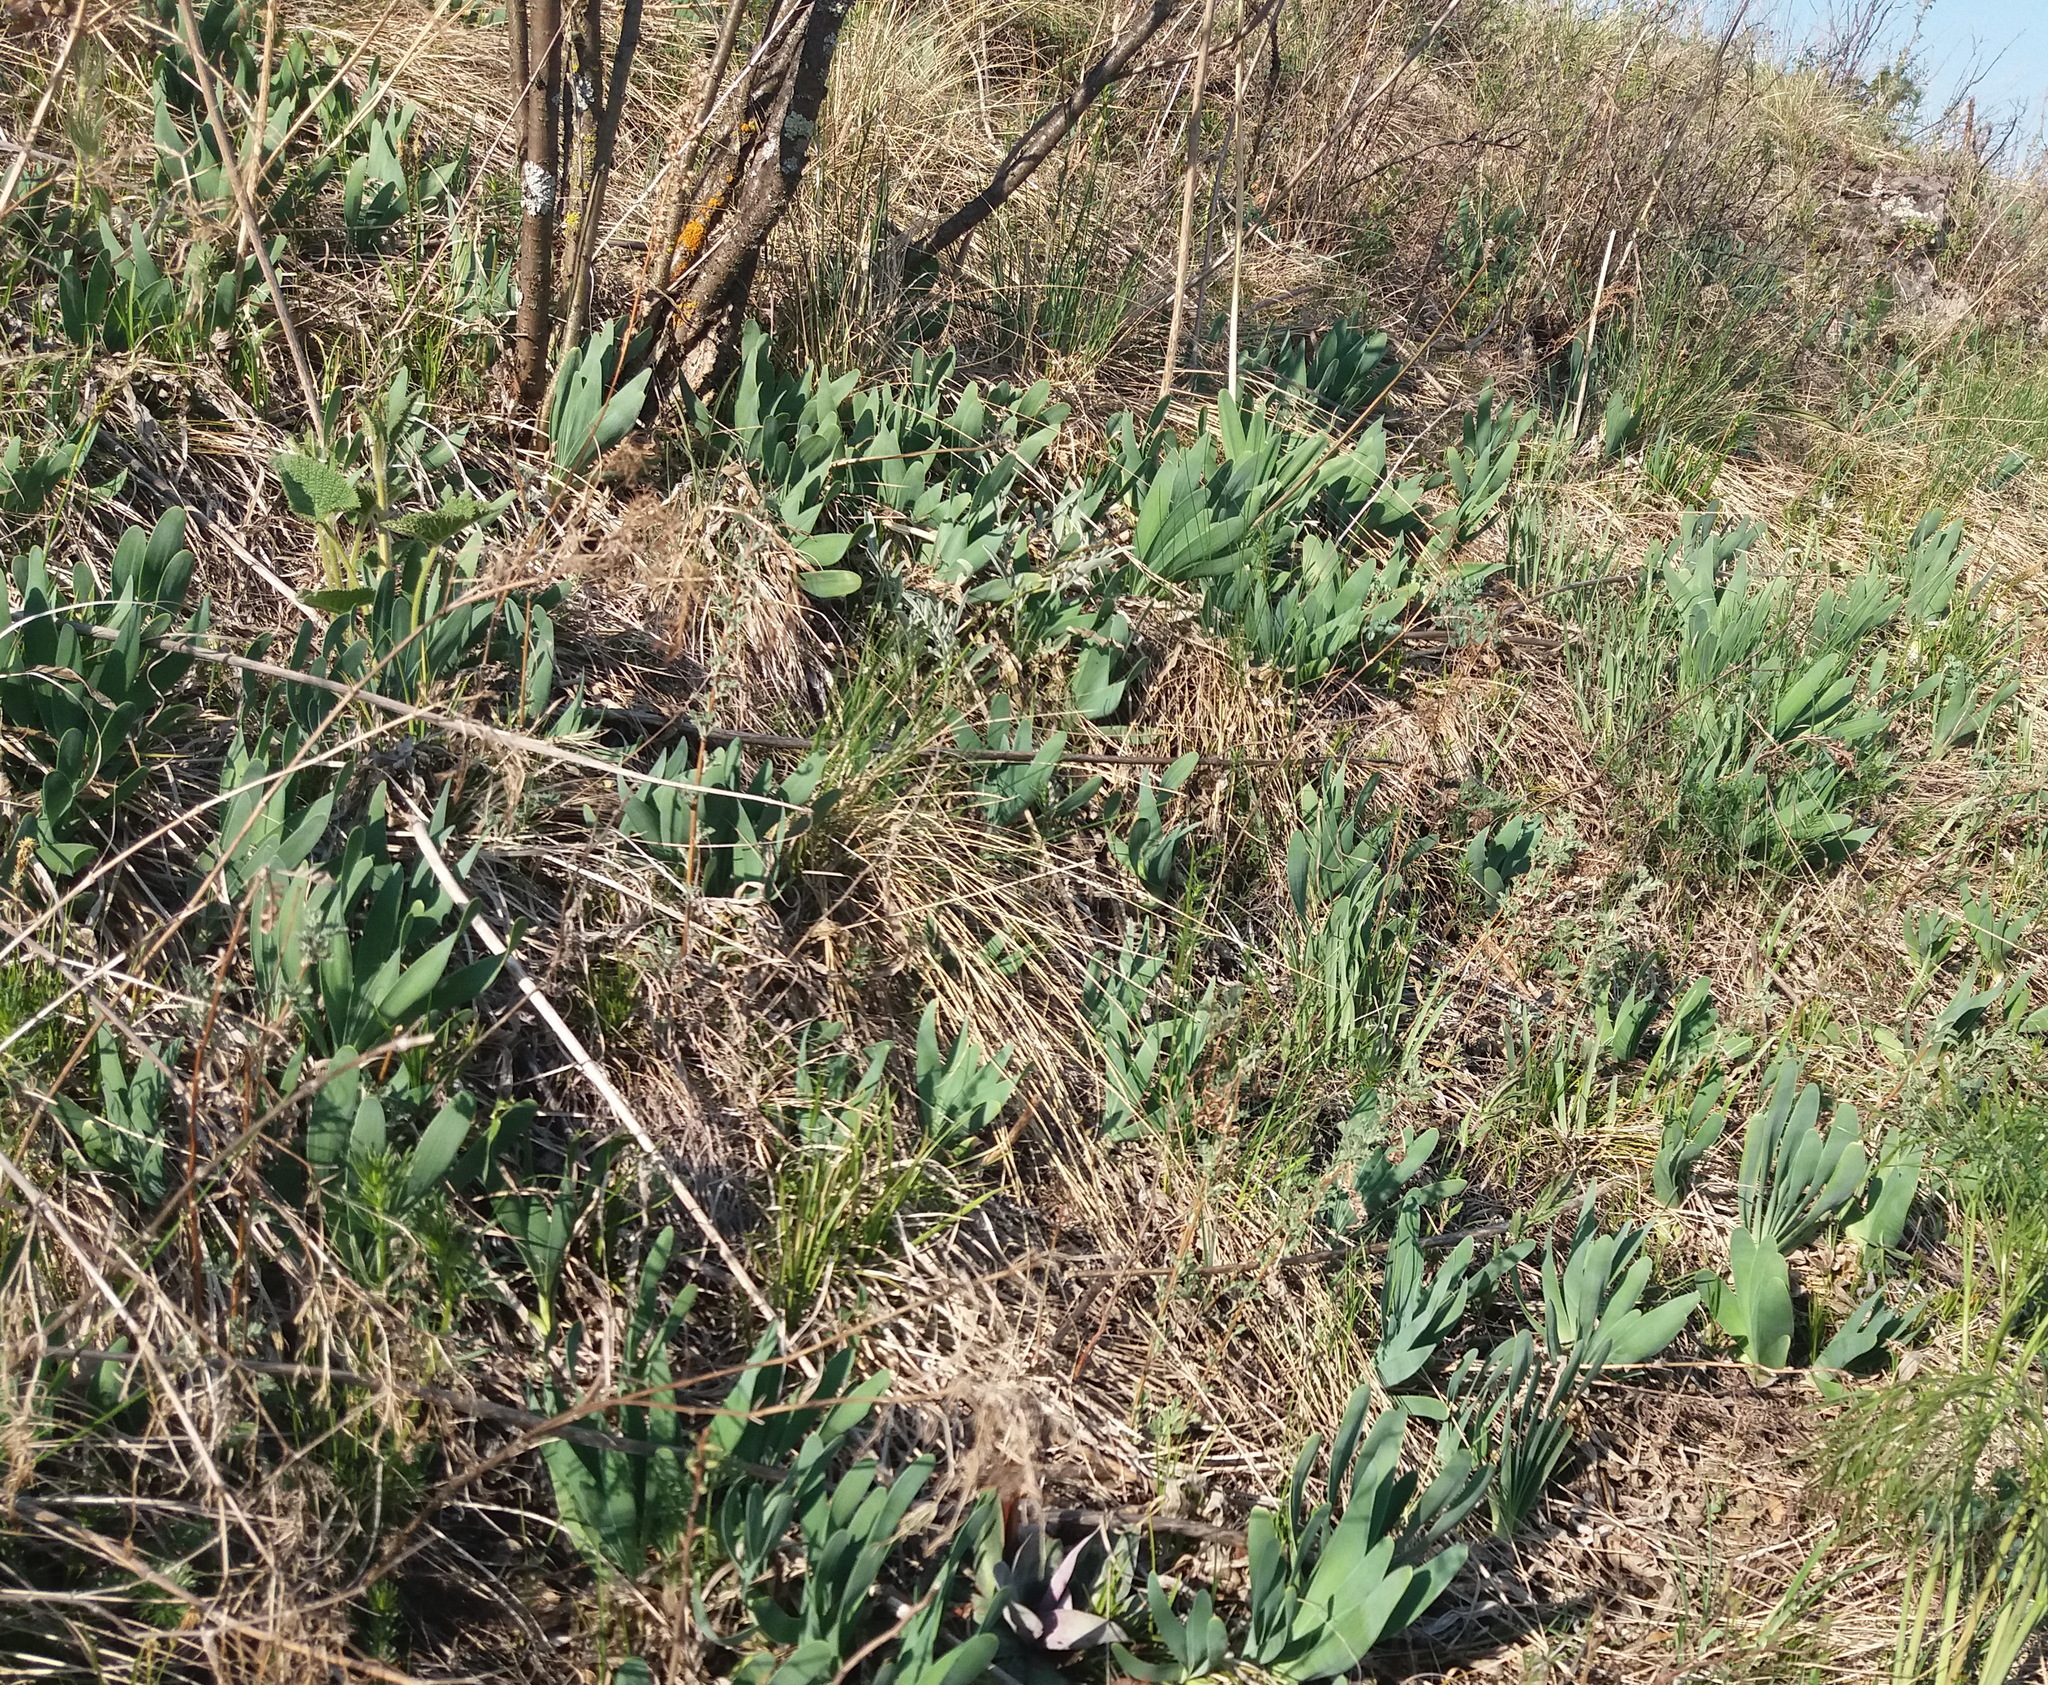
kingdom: Plantae
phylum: Tracheophyta
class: Liliopsida
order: Asparagales
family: Amaryllidaceae
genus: Allium
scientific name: Allium nutans
